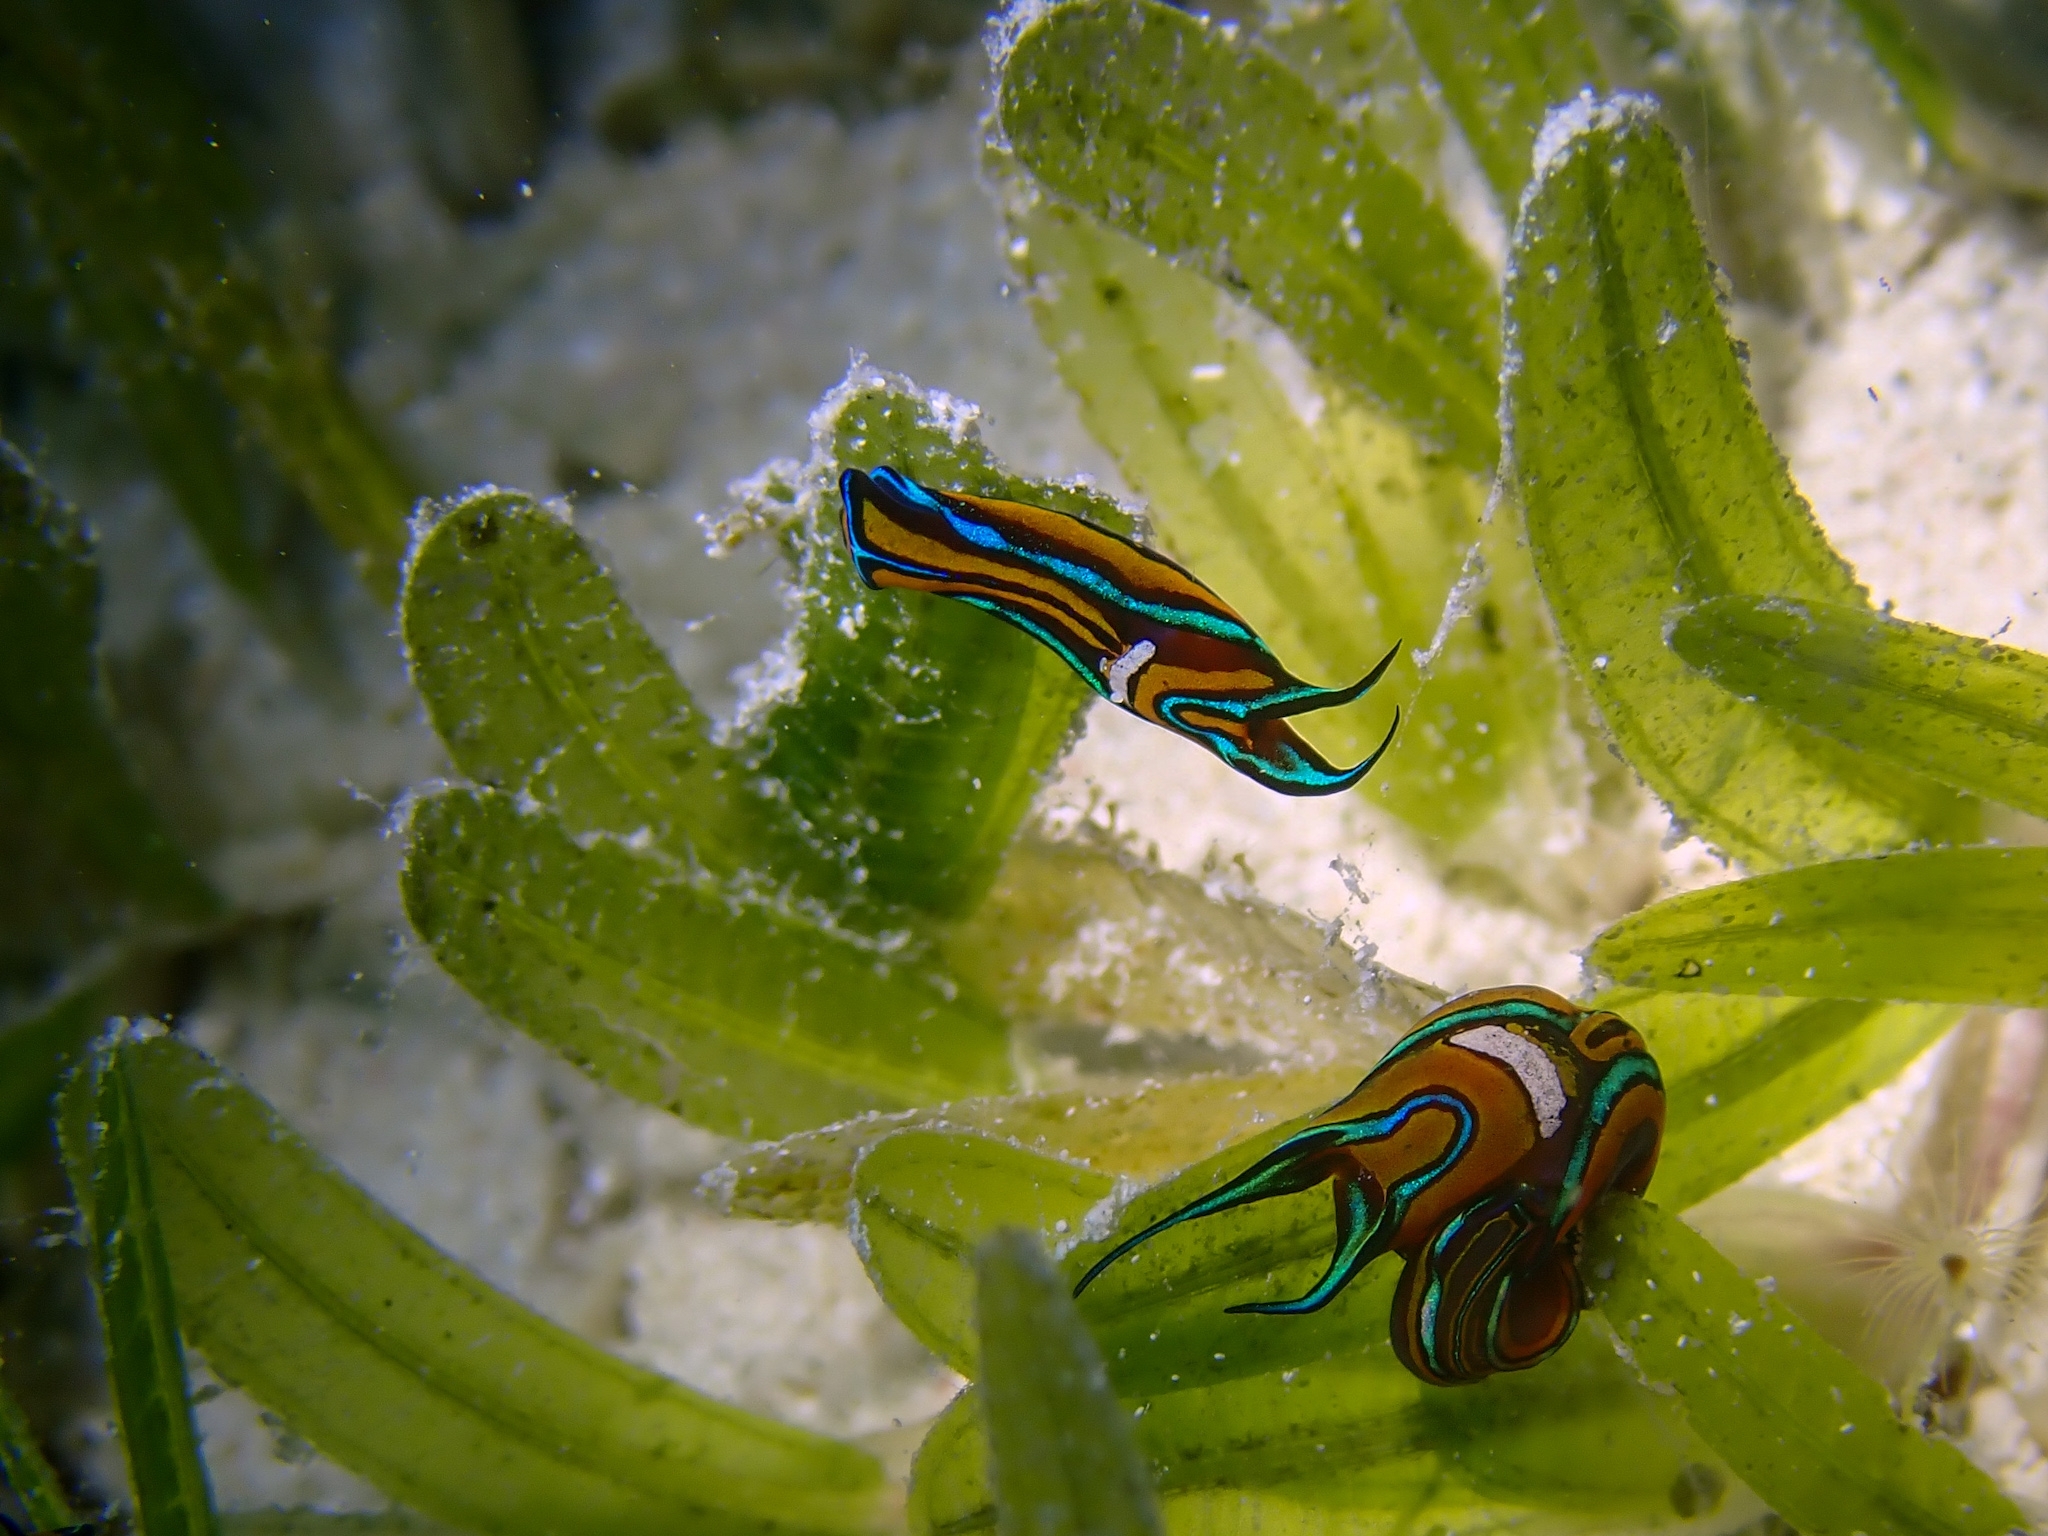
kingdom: Animalia
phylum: Mollusca
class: Gastropoda
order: Cephalaspidea
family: Aglajidae
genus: Chelidonura
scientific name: Chelidonura hirundinina
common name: Leech headshield slug
